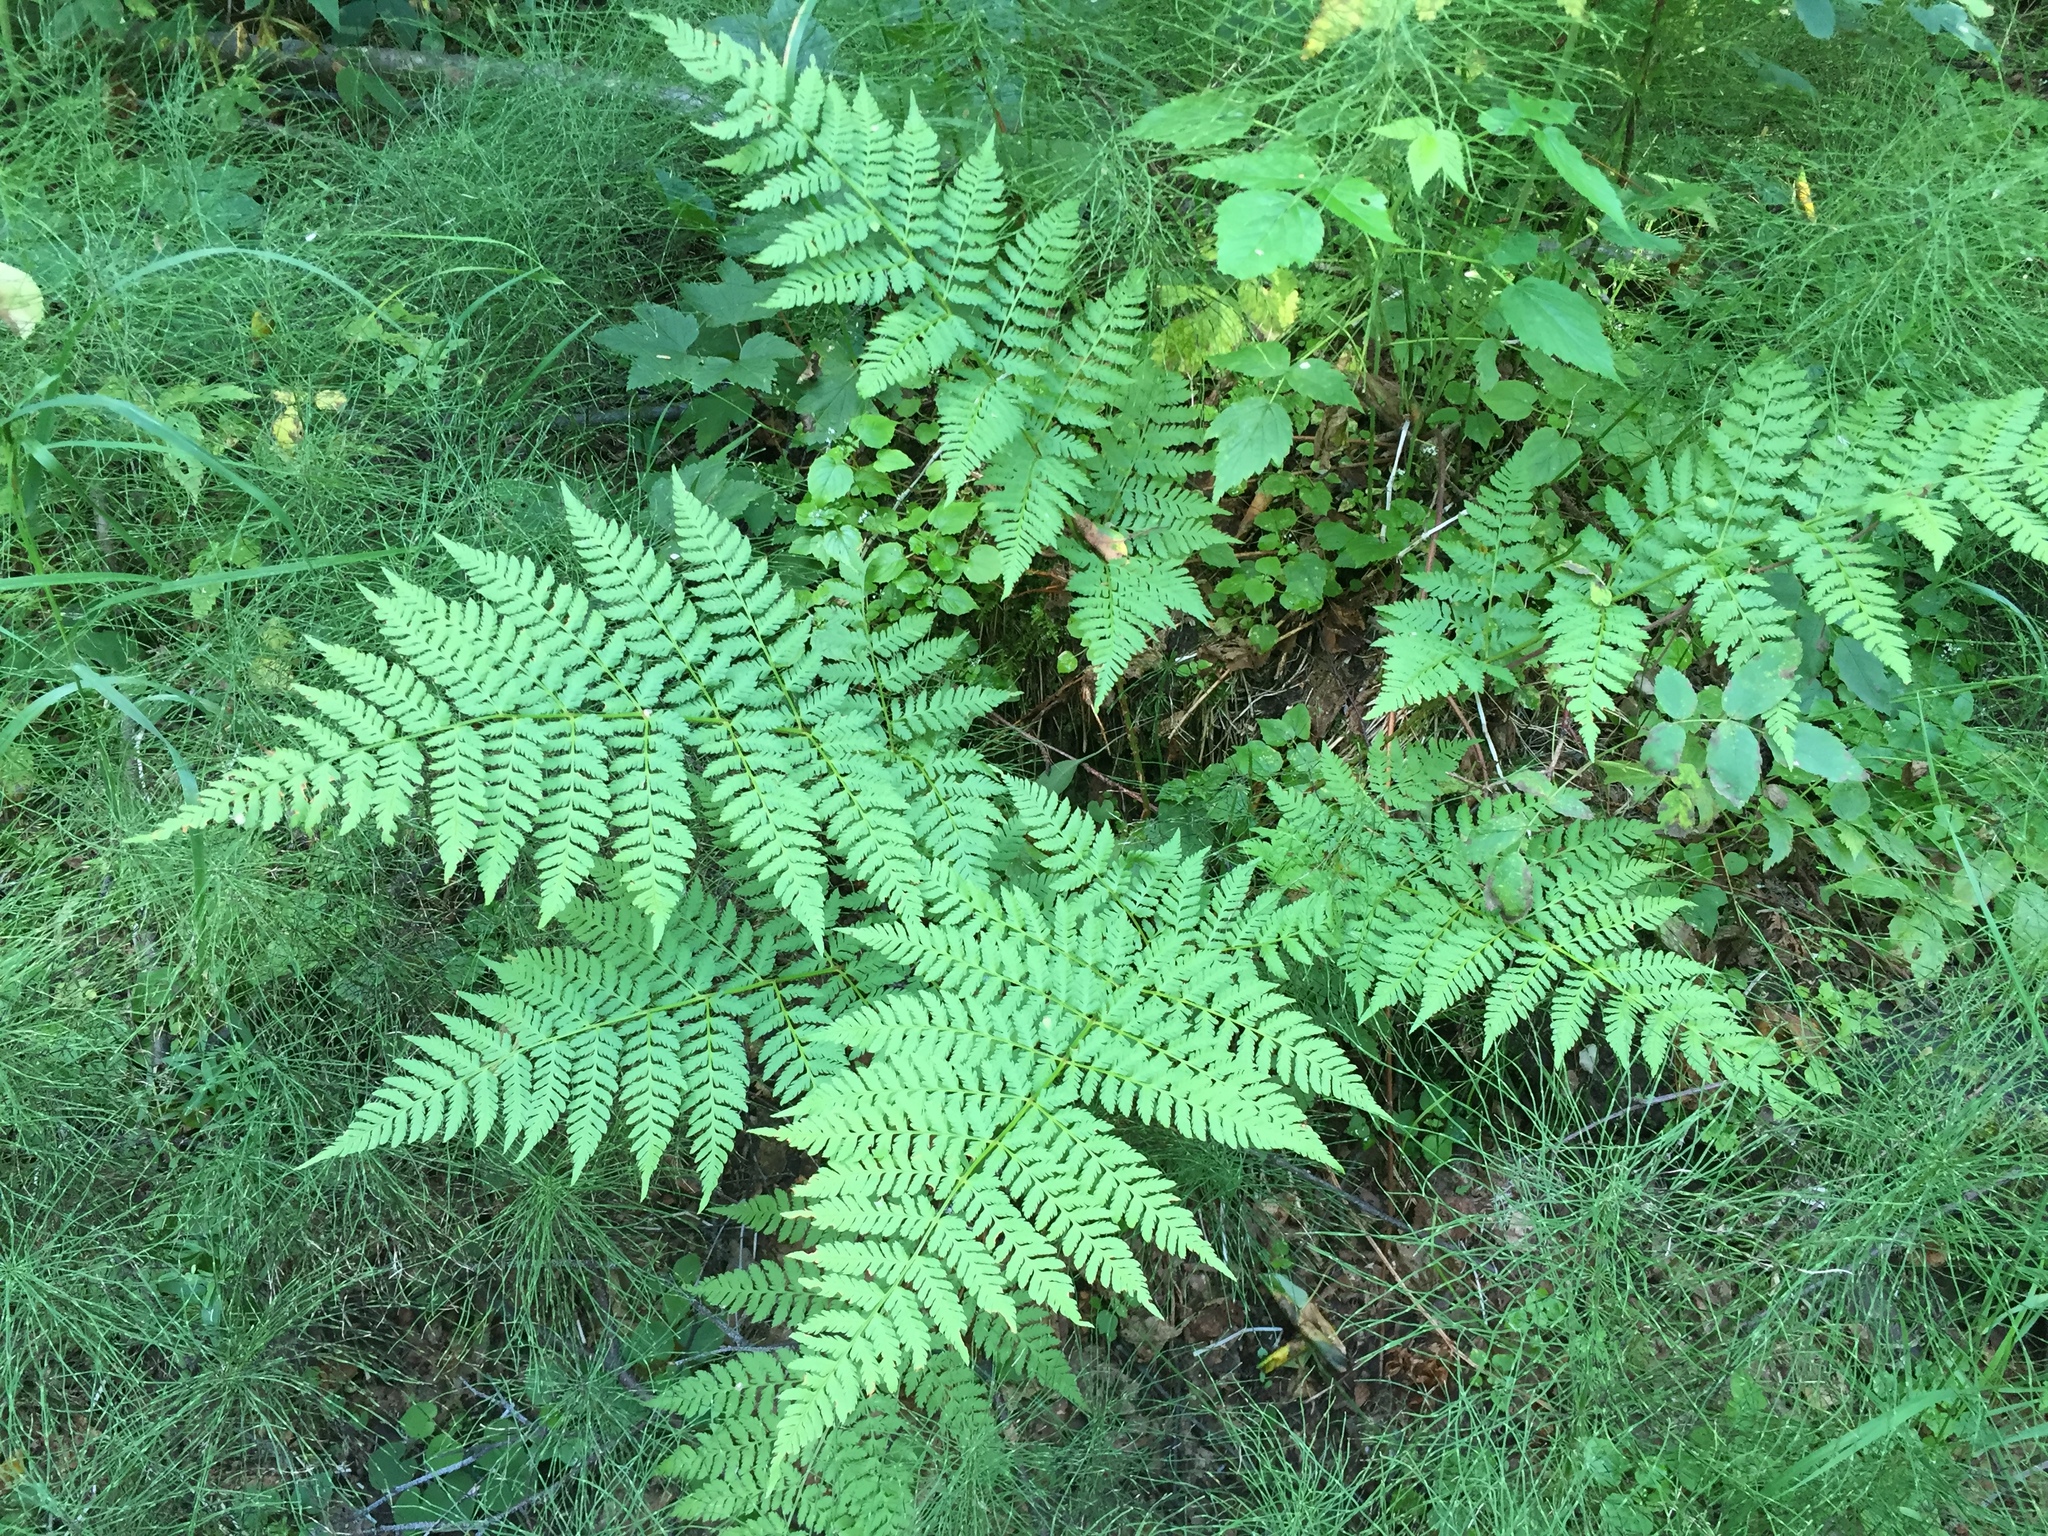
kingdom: Plantae
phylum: Tracheophyta
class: Polypodiopsida
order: Polypodiales
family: Dryopteridaceae
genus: Dryopteris
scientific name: Dryopteris expansa
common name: Northern buckler fern
